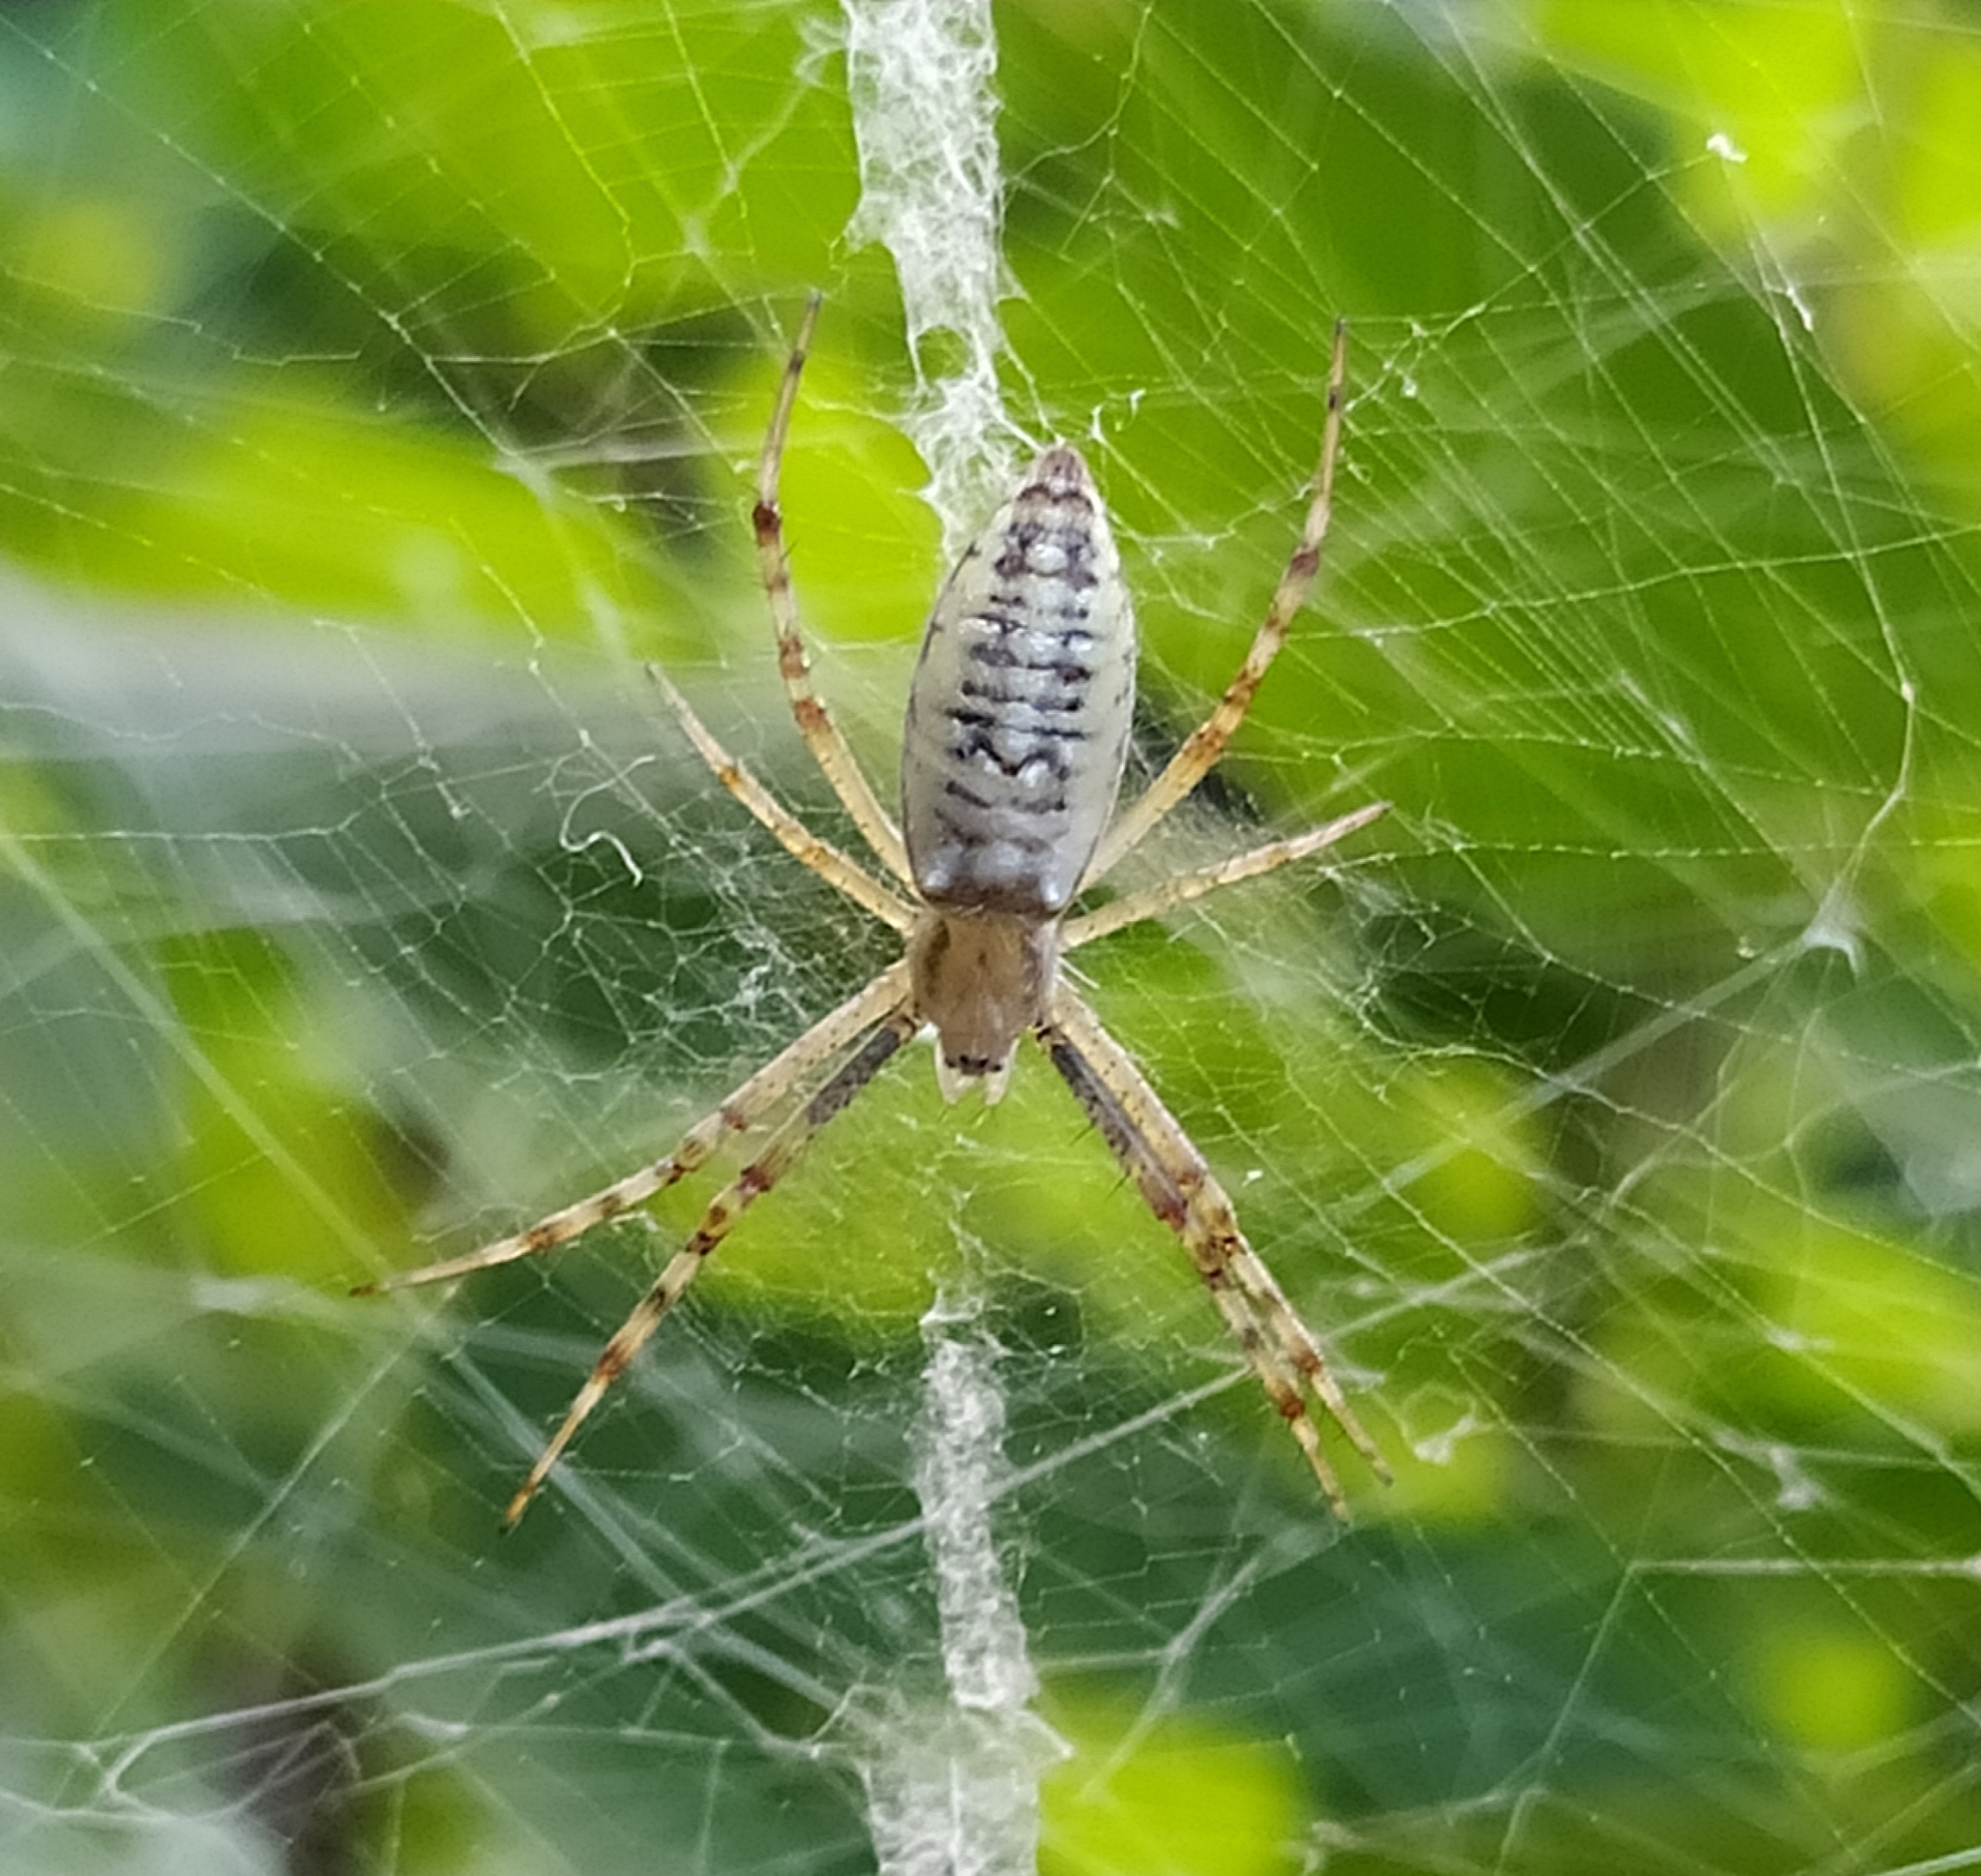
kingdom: Animalia
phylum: Arthropoda
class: Arachnida
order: Araneae
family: Araneidae
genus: Argiope
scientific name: Argiope bruennichi
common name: Wasp spider
